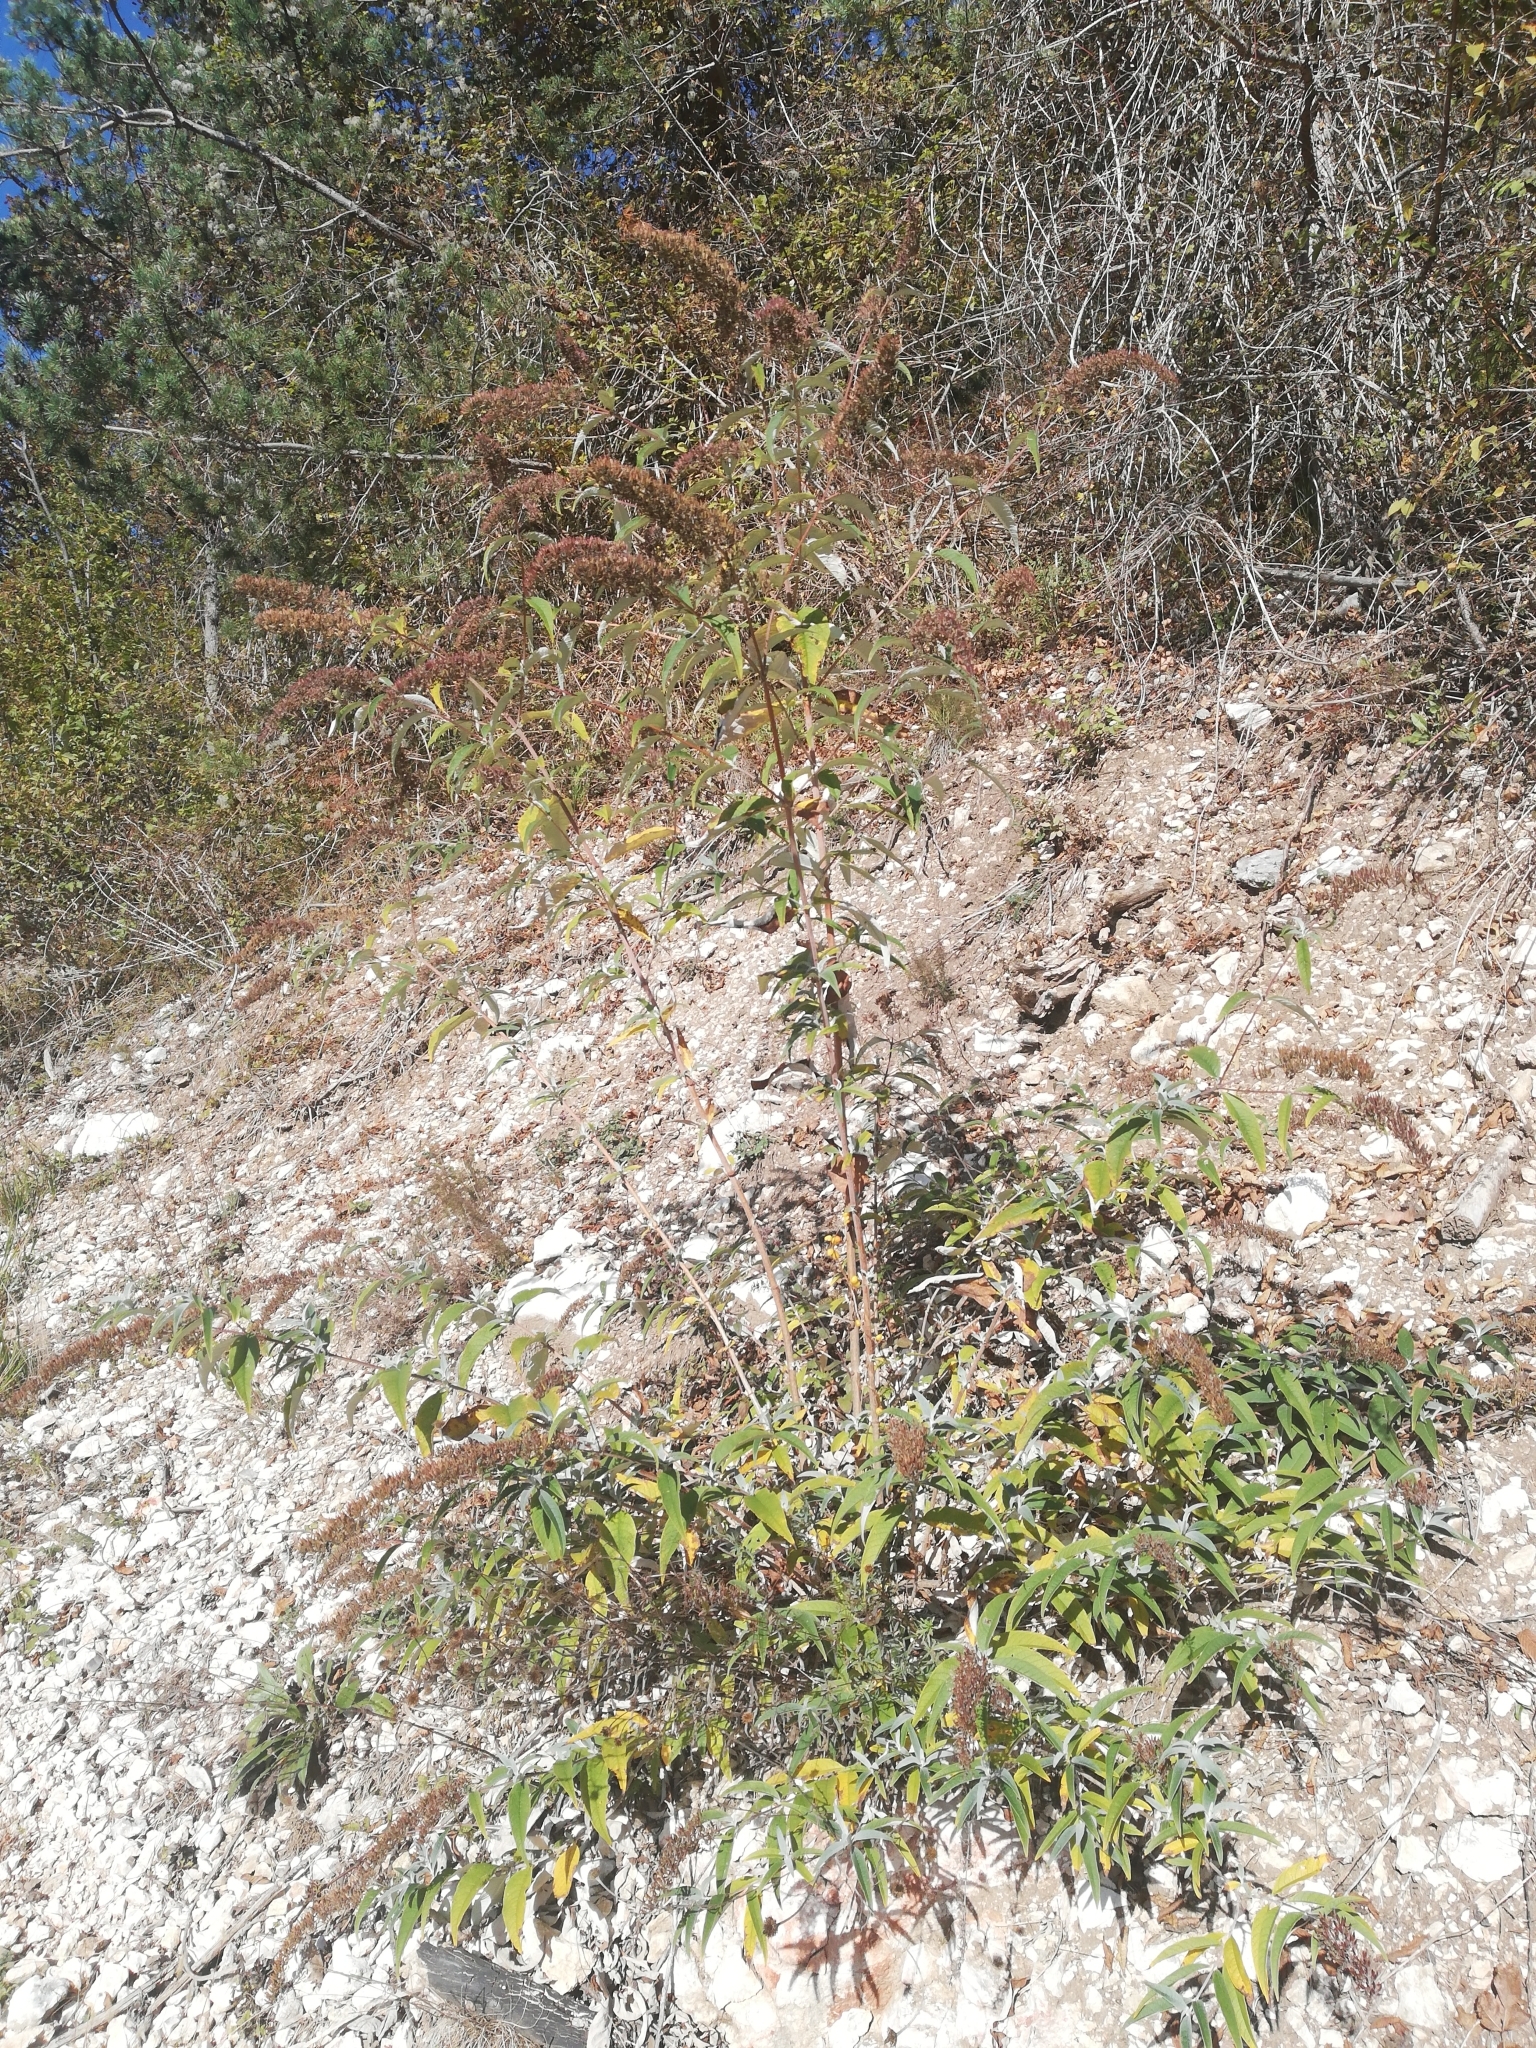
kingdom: Plantae
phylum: Tracheophyta
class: Magnoliopsida
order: Lamiales
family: Scrophulariaceae
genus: Buddleja
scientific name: Buddleja davidii
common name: Butterfly-bush
